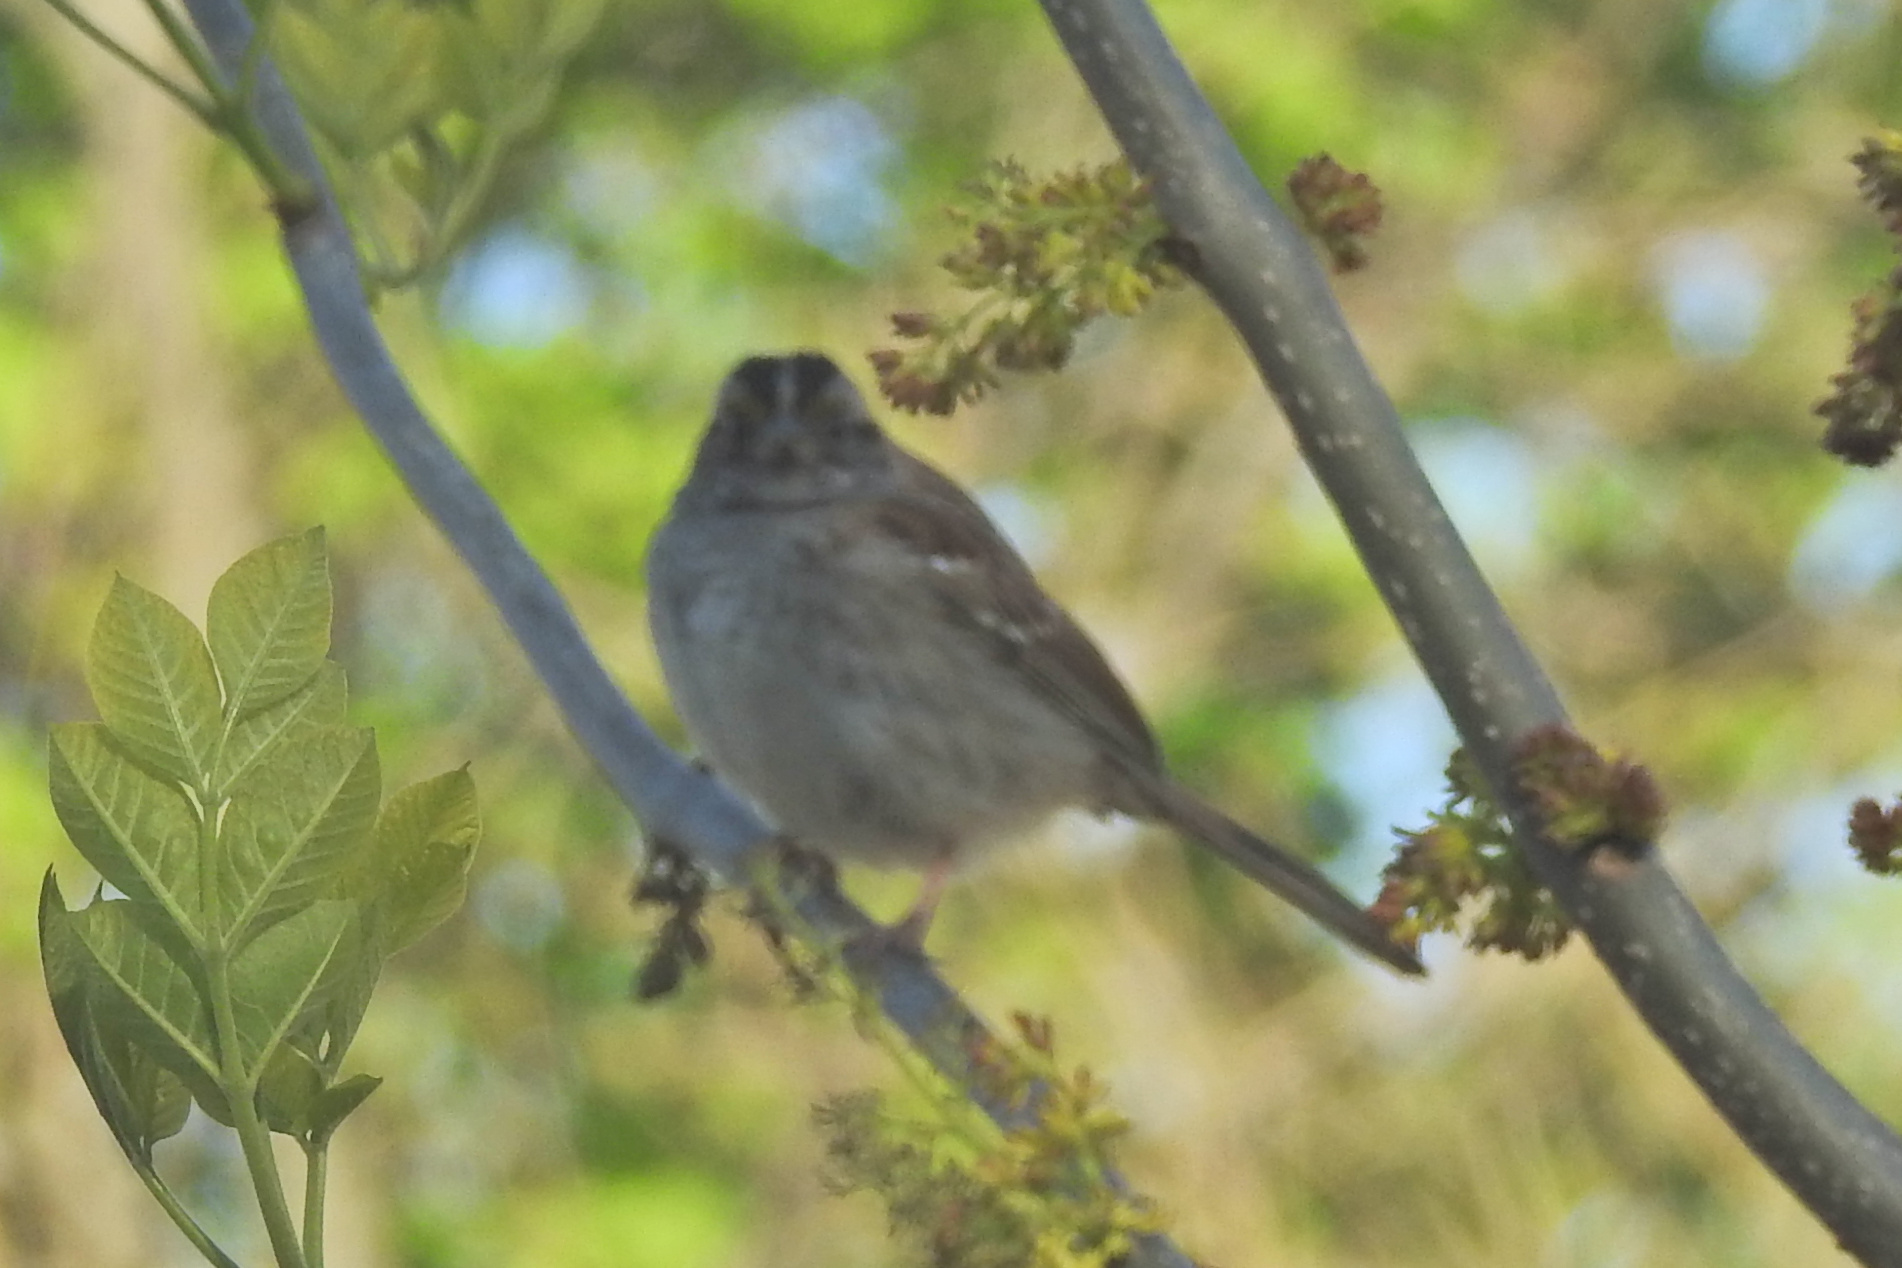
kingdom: Animalia
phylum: Chordata
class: Aves
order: Passeriformes
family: Passerellidae
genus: Zonotrichia
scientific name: Zonotrichia albicollis
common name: White-throated sparrow
